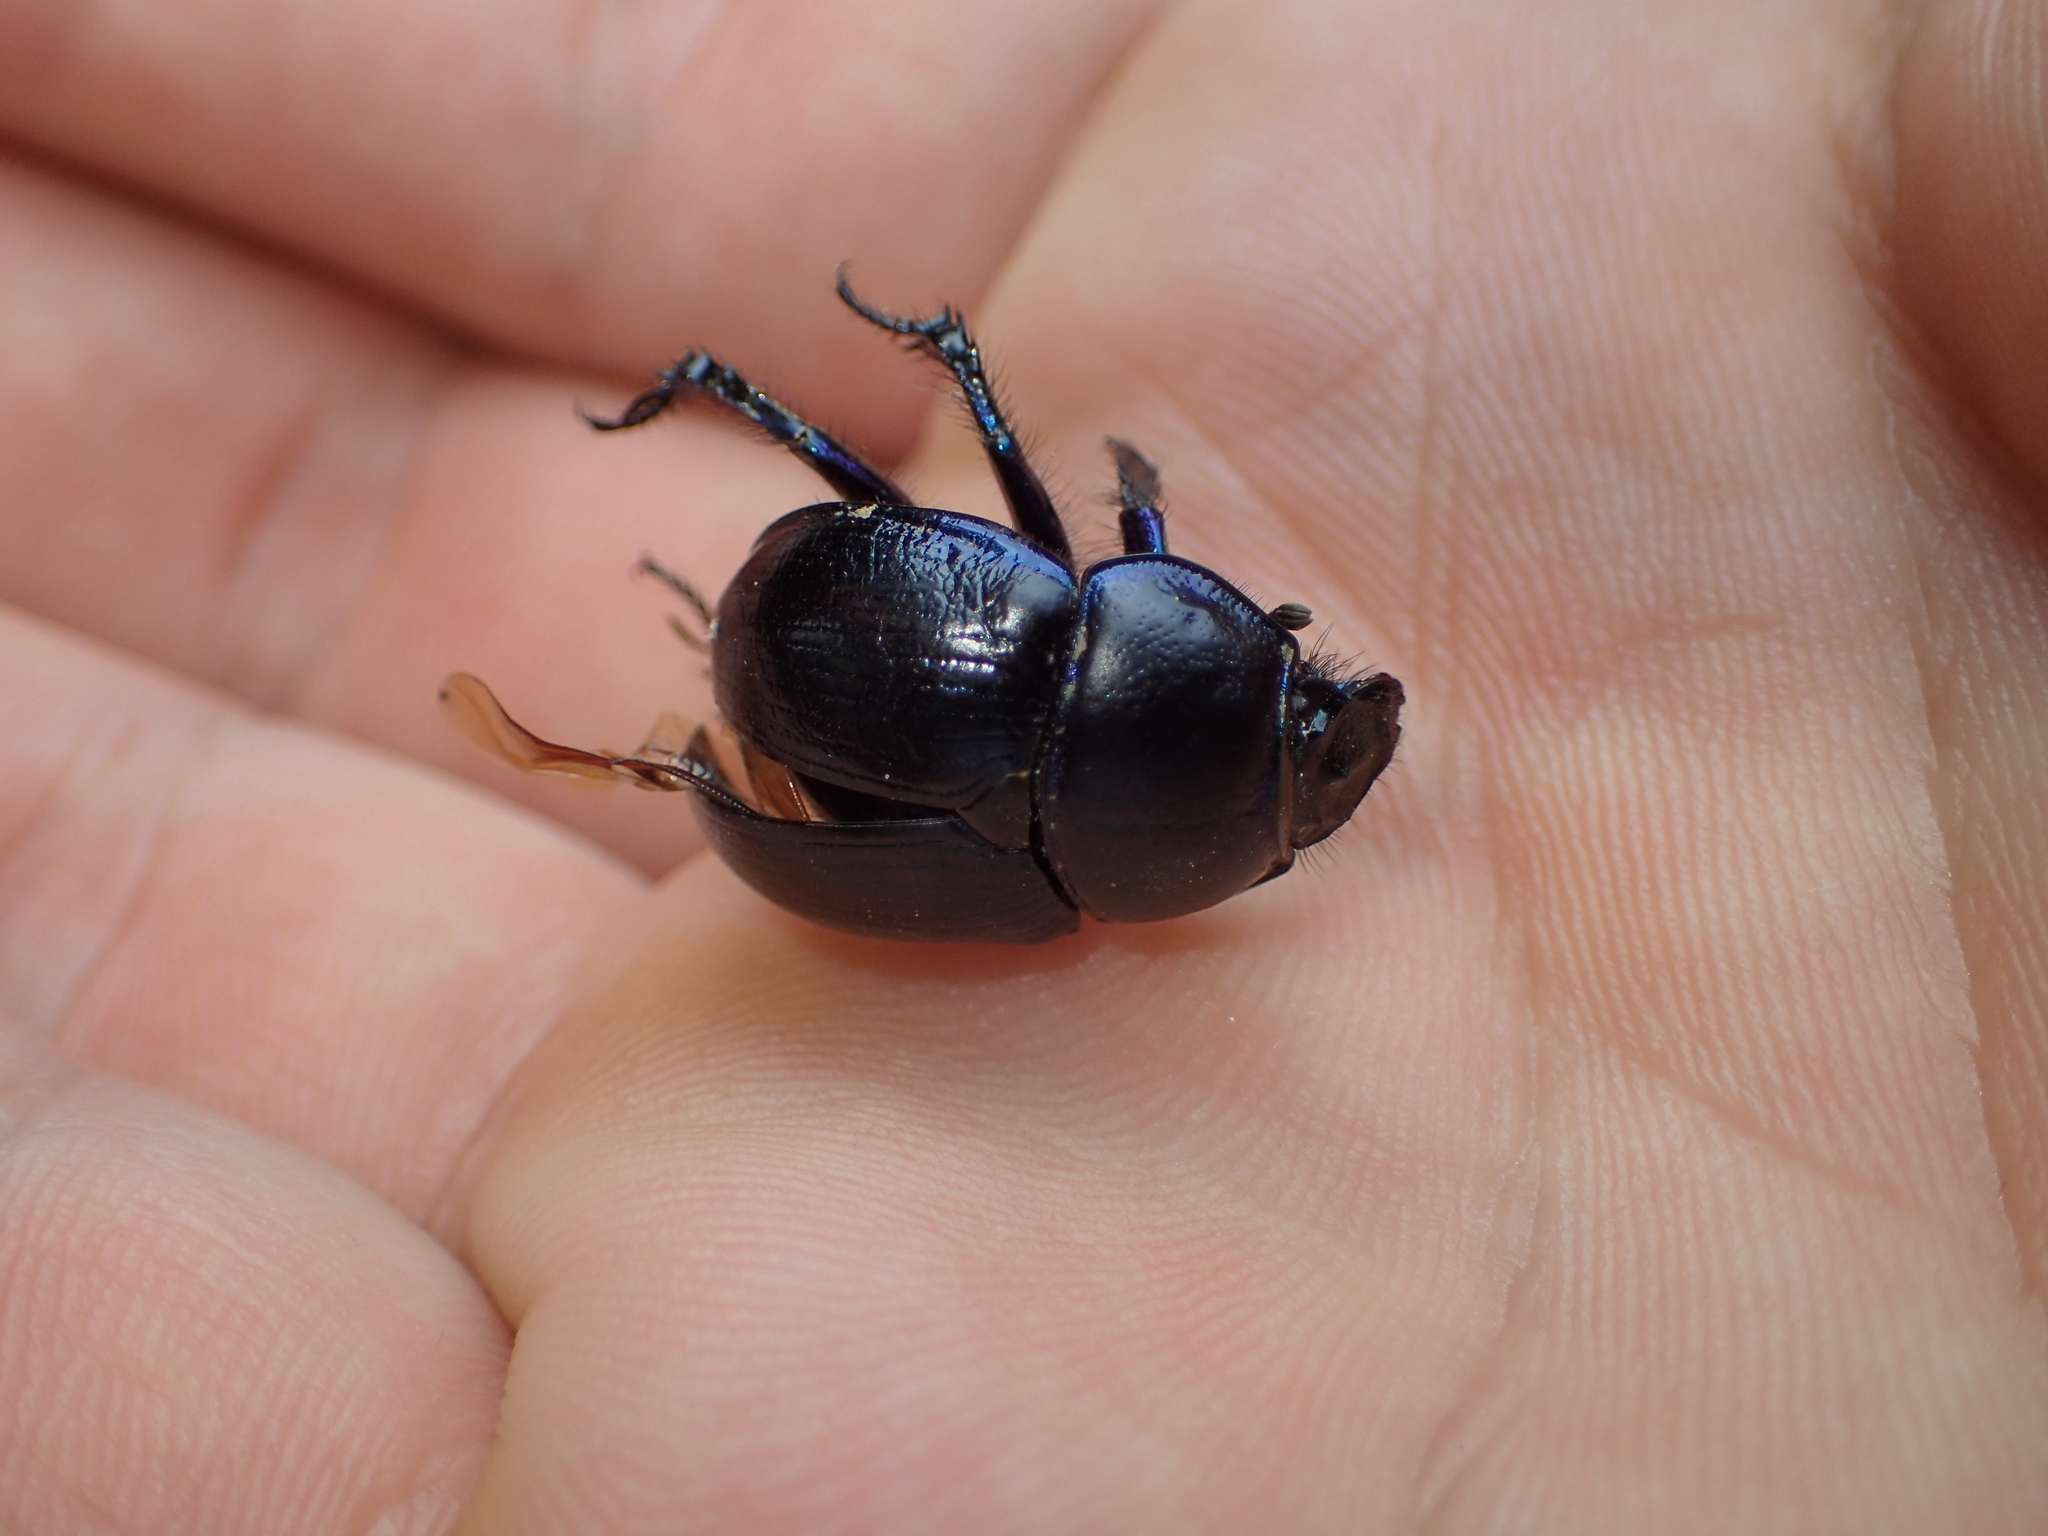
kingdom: Animalia
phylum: Arthropoda
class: Insecta
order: Coleoptera
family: Geotrupidae
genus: Anoplotrupes
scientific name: Anoplotrupes stercorosus
